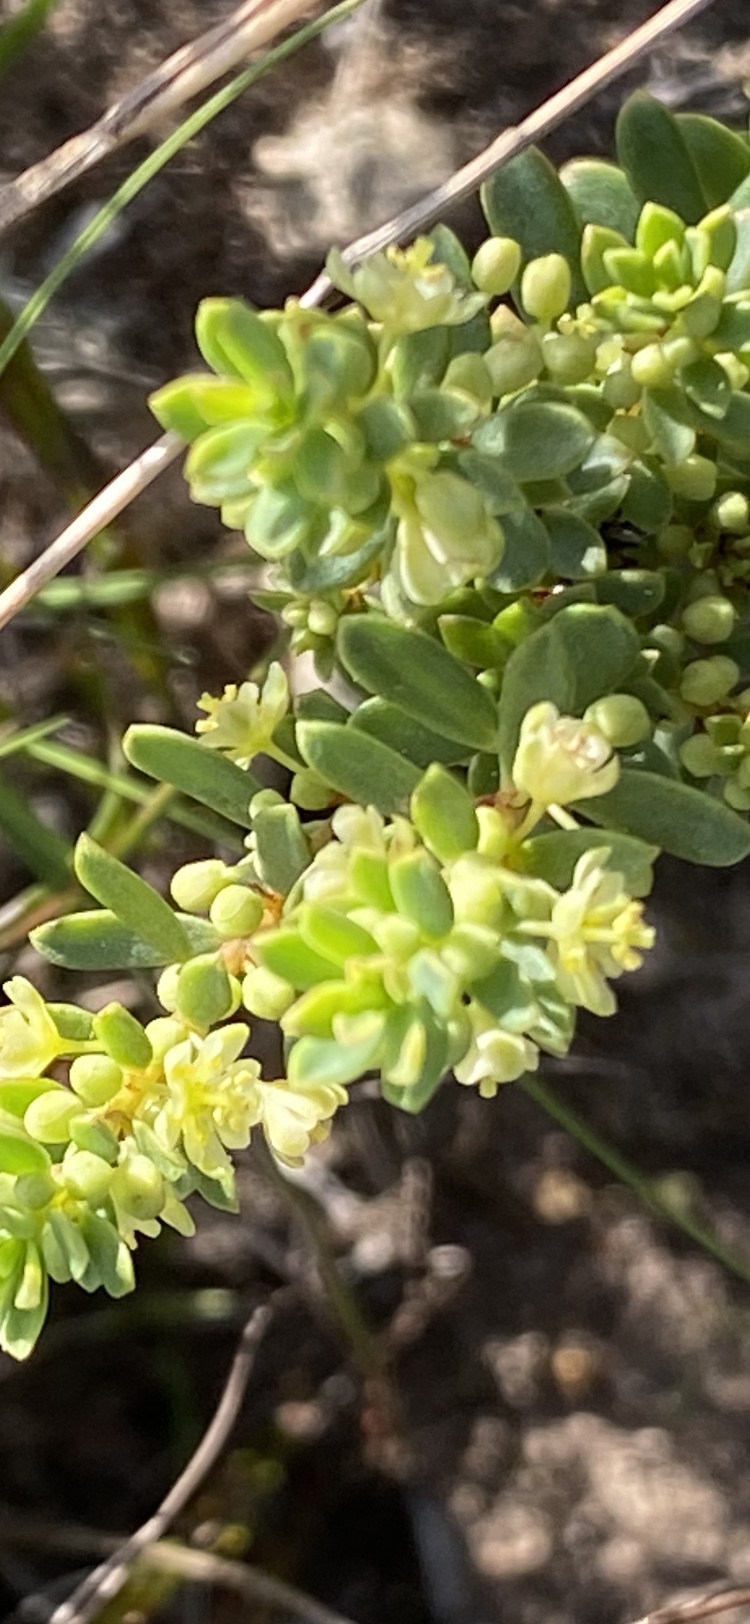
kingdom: Plantae
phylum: Tracheophyta
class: Magnoliopsida
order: Malpighiales
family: Peraceae
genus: Clutia
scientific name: Clutia laxa
